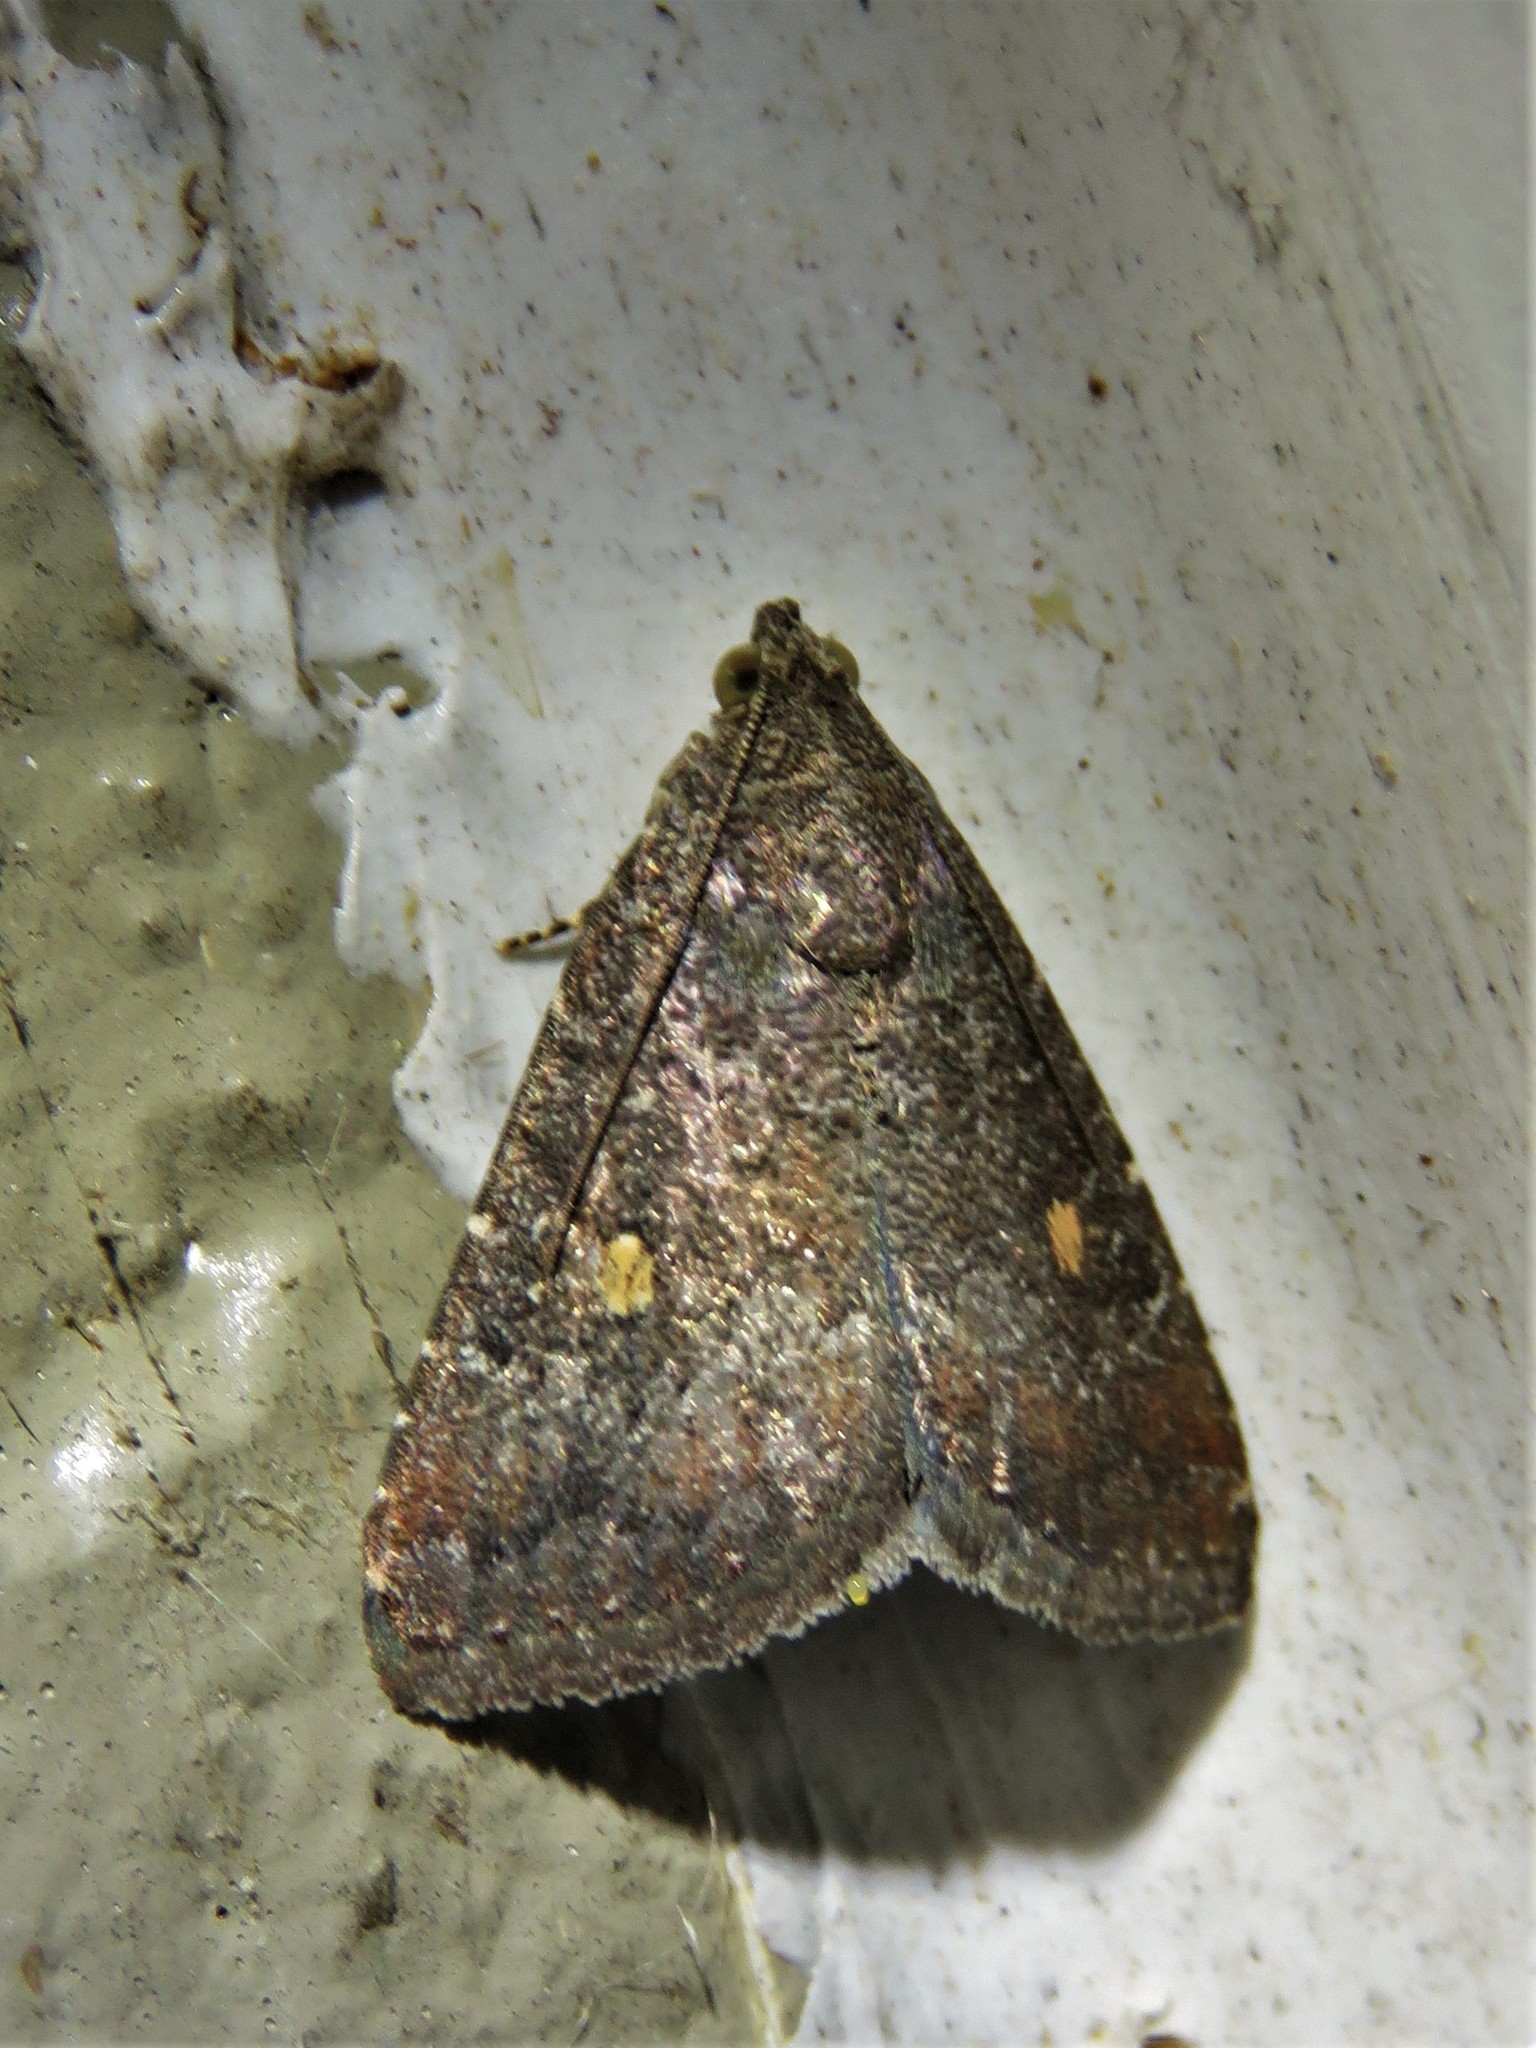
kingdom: Animalia
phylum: Arthropoda
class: Insecta
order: Lepidoptera
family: Noctuidae
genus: Amyna
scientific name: Amyna stricta
